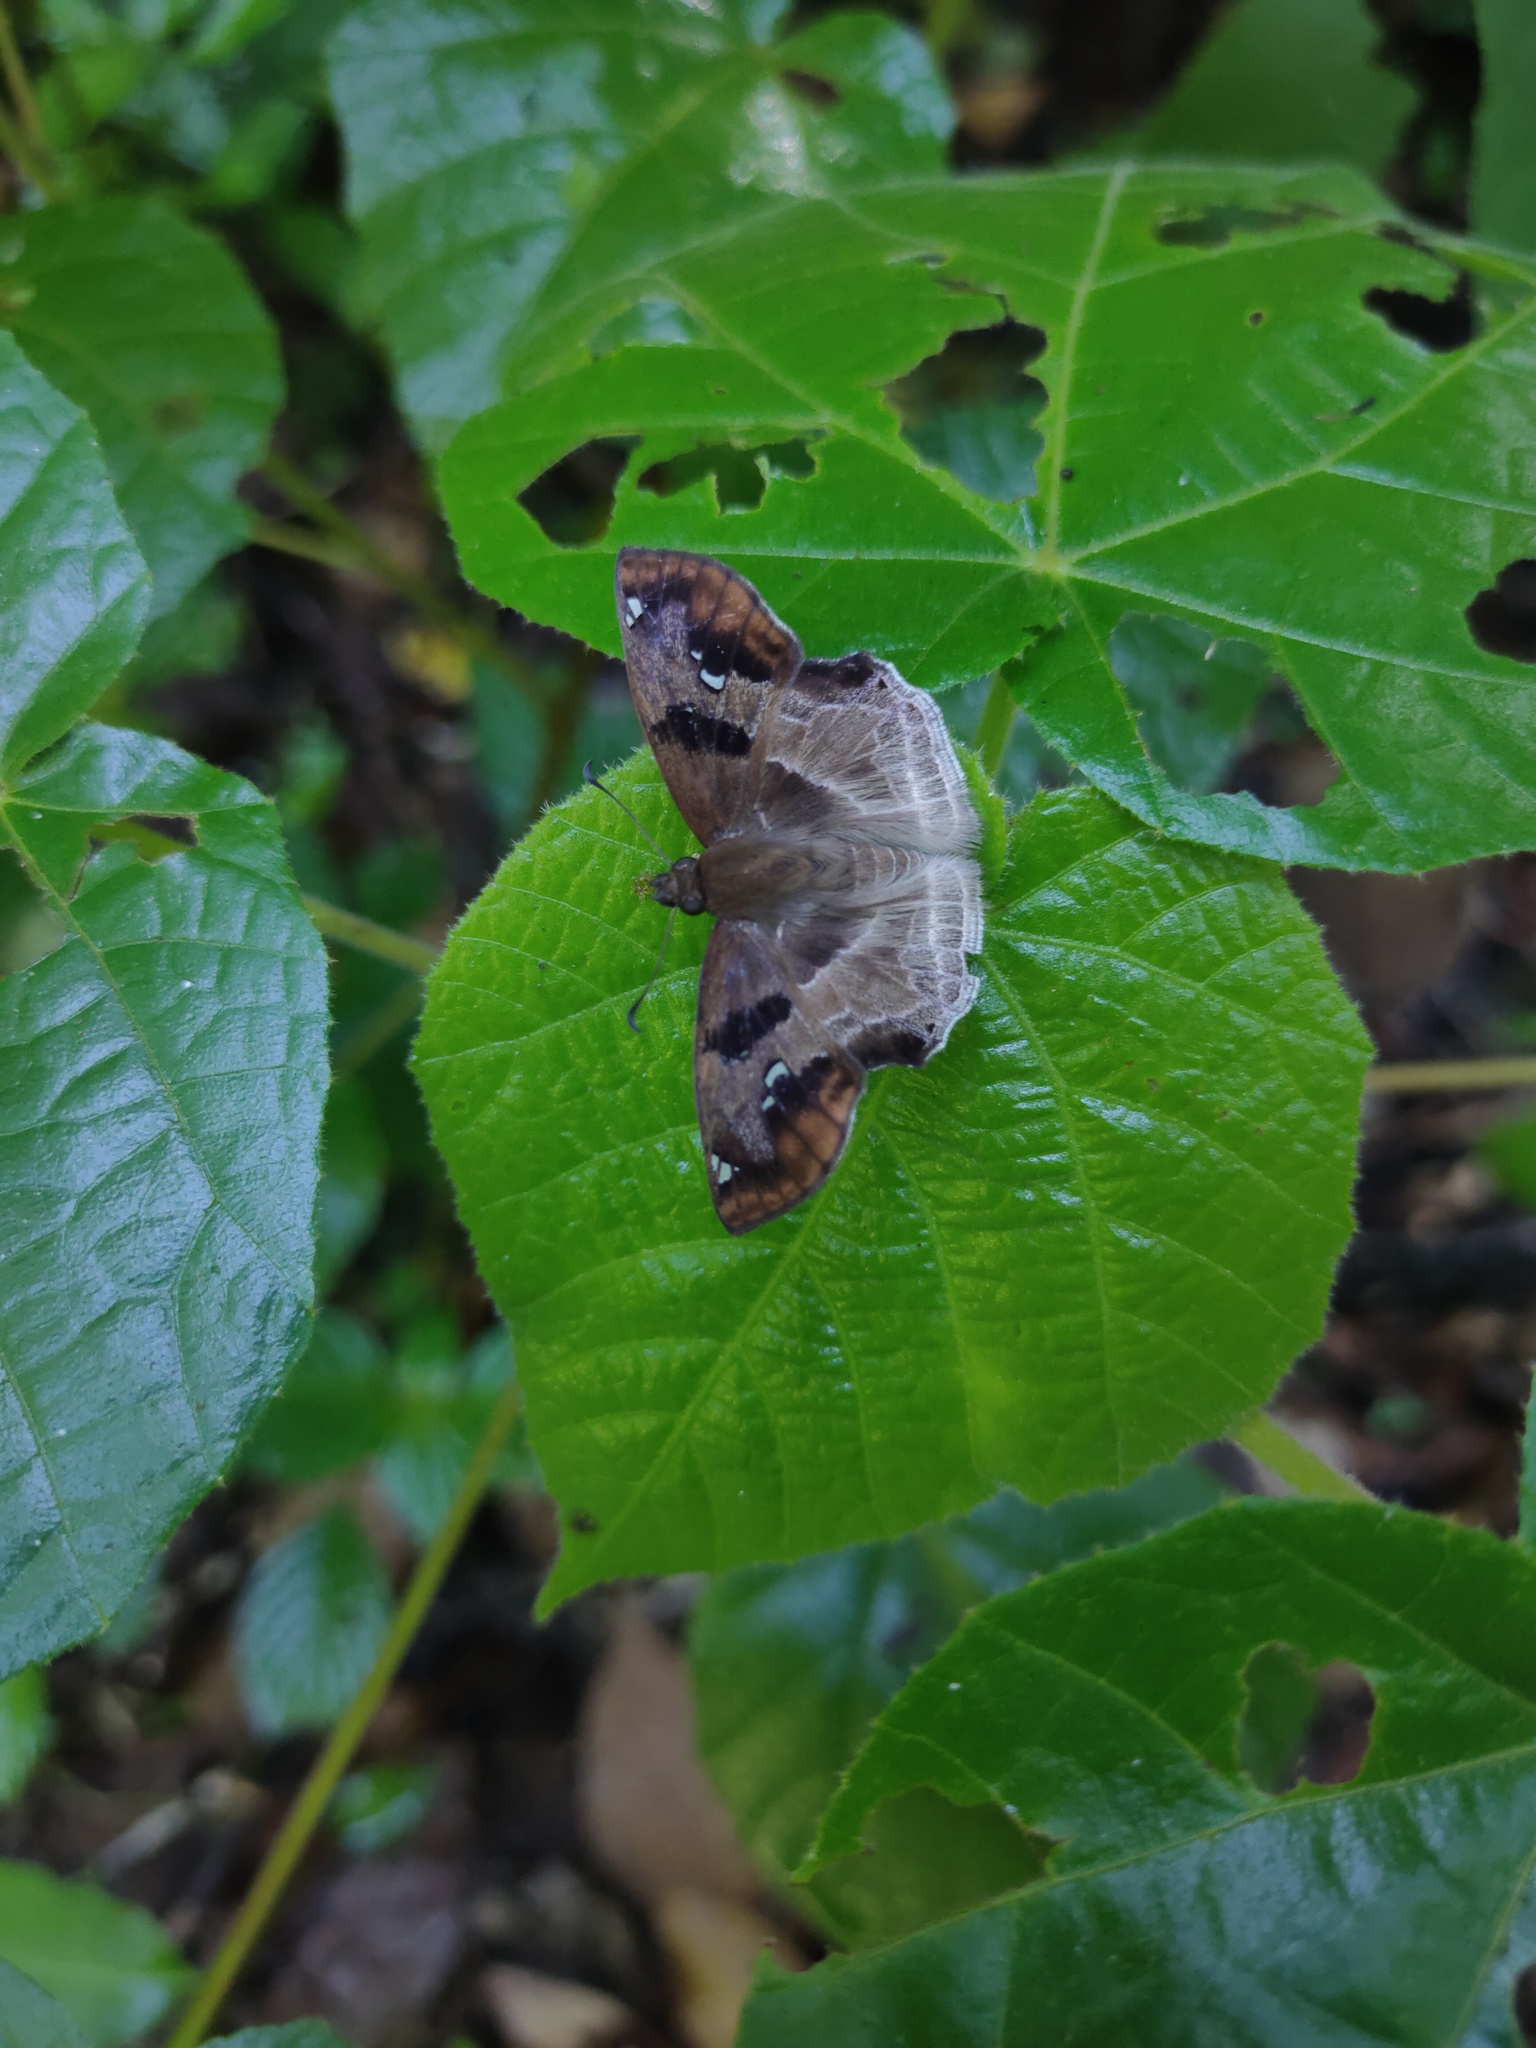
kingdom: Animalia
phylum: Arthropoda
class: Insecta
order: Lepidoptera
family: Hesperiidae
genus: Odontoptilum
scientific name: Odontoptilum angulata
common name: Chestnut banded angle
